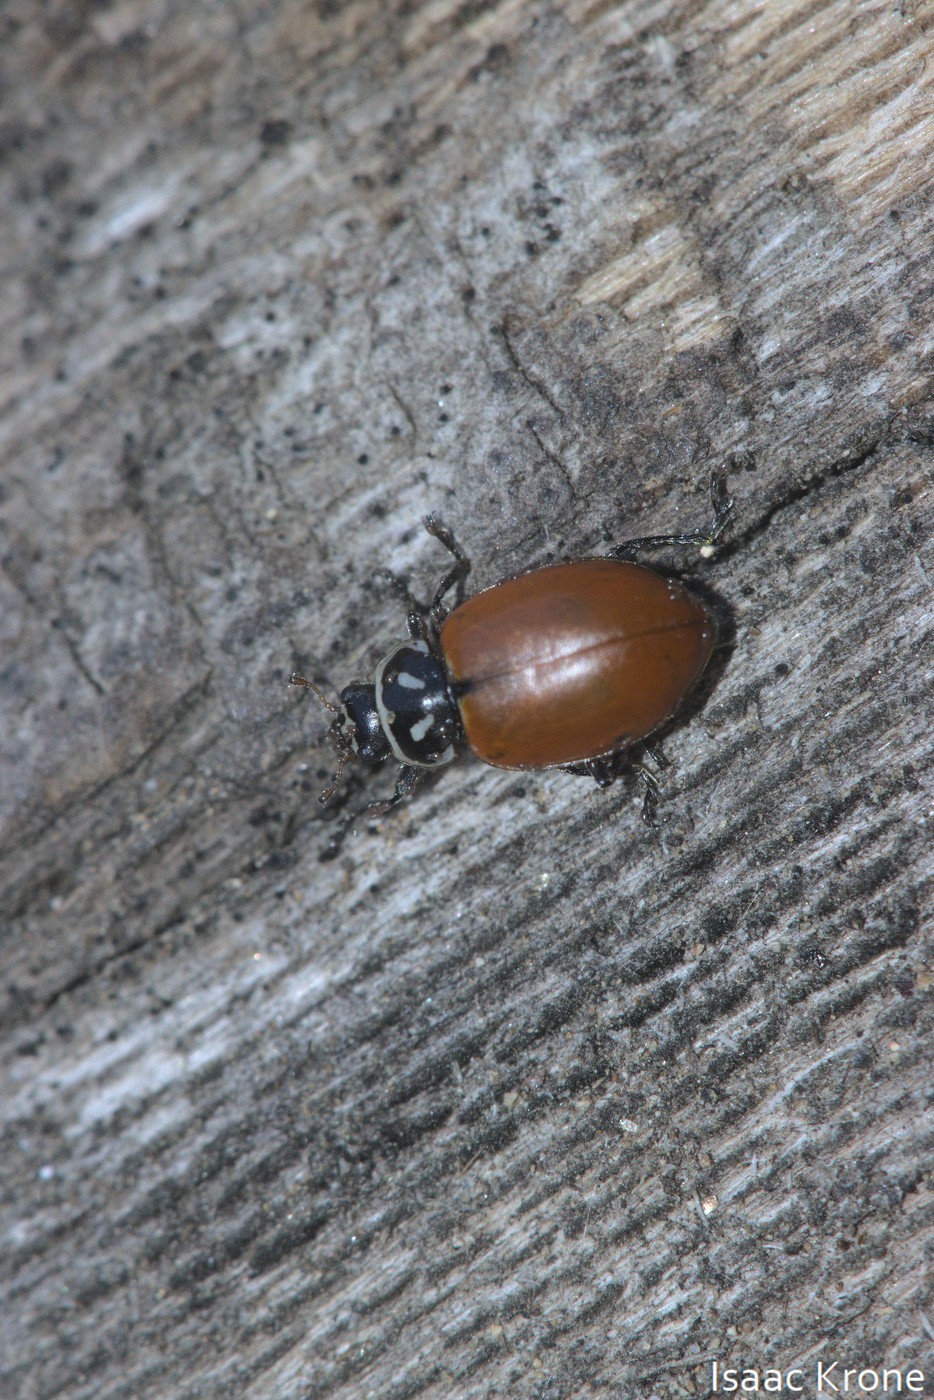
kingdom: Animalia
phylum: Arthropoda
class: Insecta
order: Coleoptera
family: Coccinellidae
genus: Hippodamia
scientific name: Hippodamia convergens
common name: Convergent lady beetle
